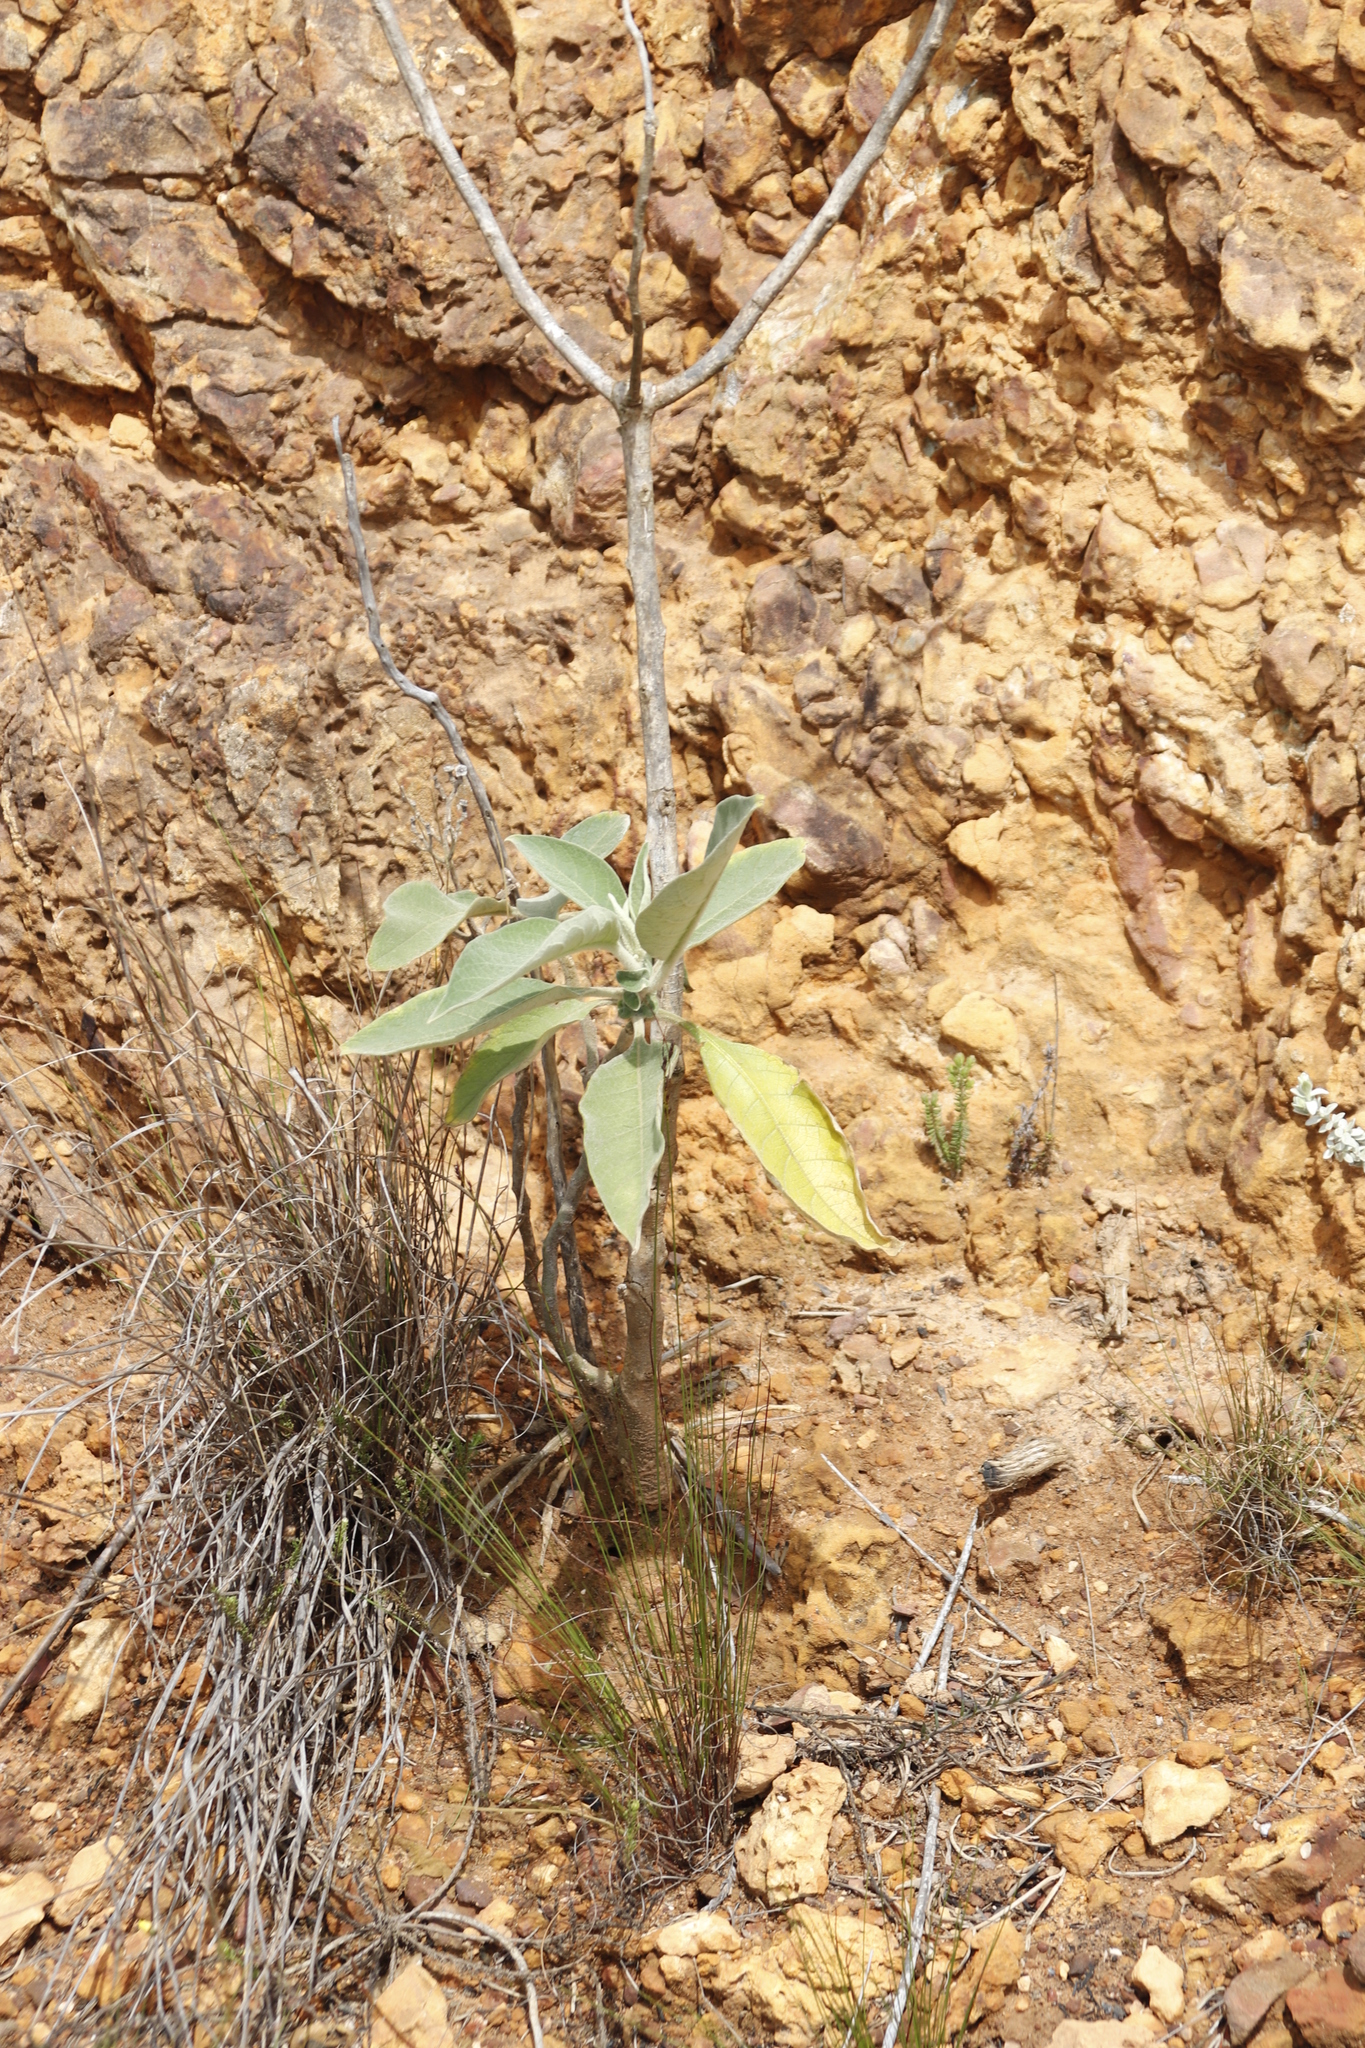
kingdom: Plantae
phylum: Tracheophyta
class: Magnoliopsida
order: Solanales
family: Solanaceae
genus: Solanum
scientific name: Solanum mauritianum
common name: Earleaf nightshade
